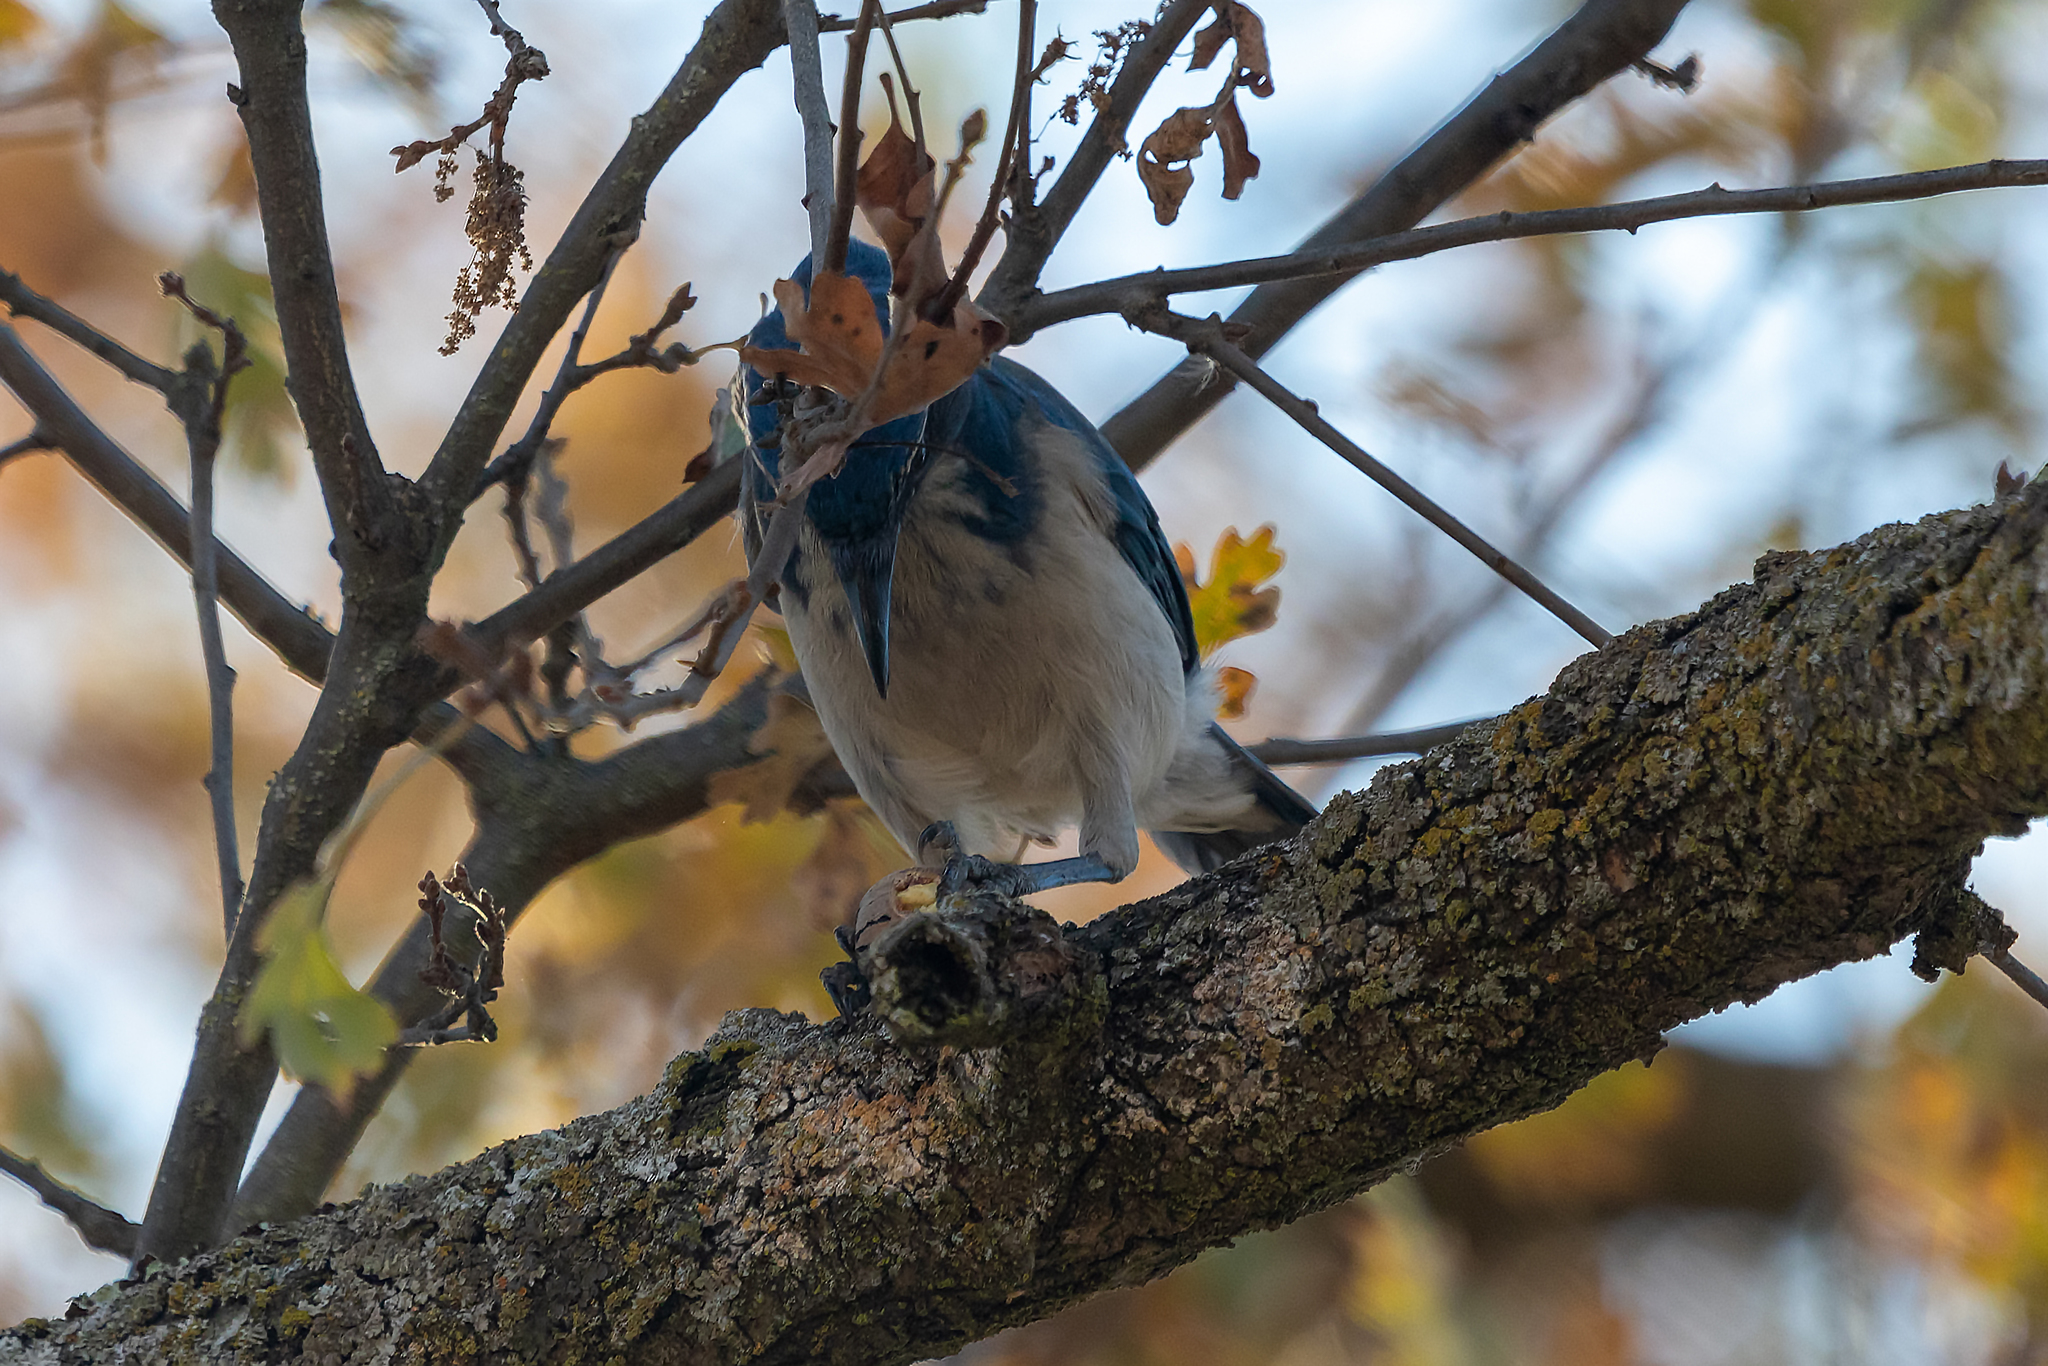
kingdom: Animalia
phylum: Chordata
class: Aves
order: Passeriformes
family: Corvidae
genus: Aphelocoma
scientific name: Aphelocoma californica
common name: California scrub-jay
